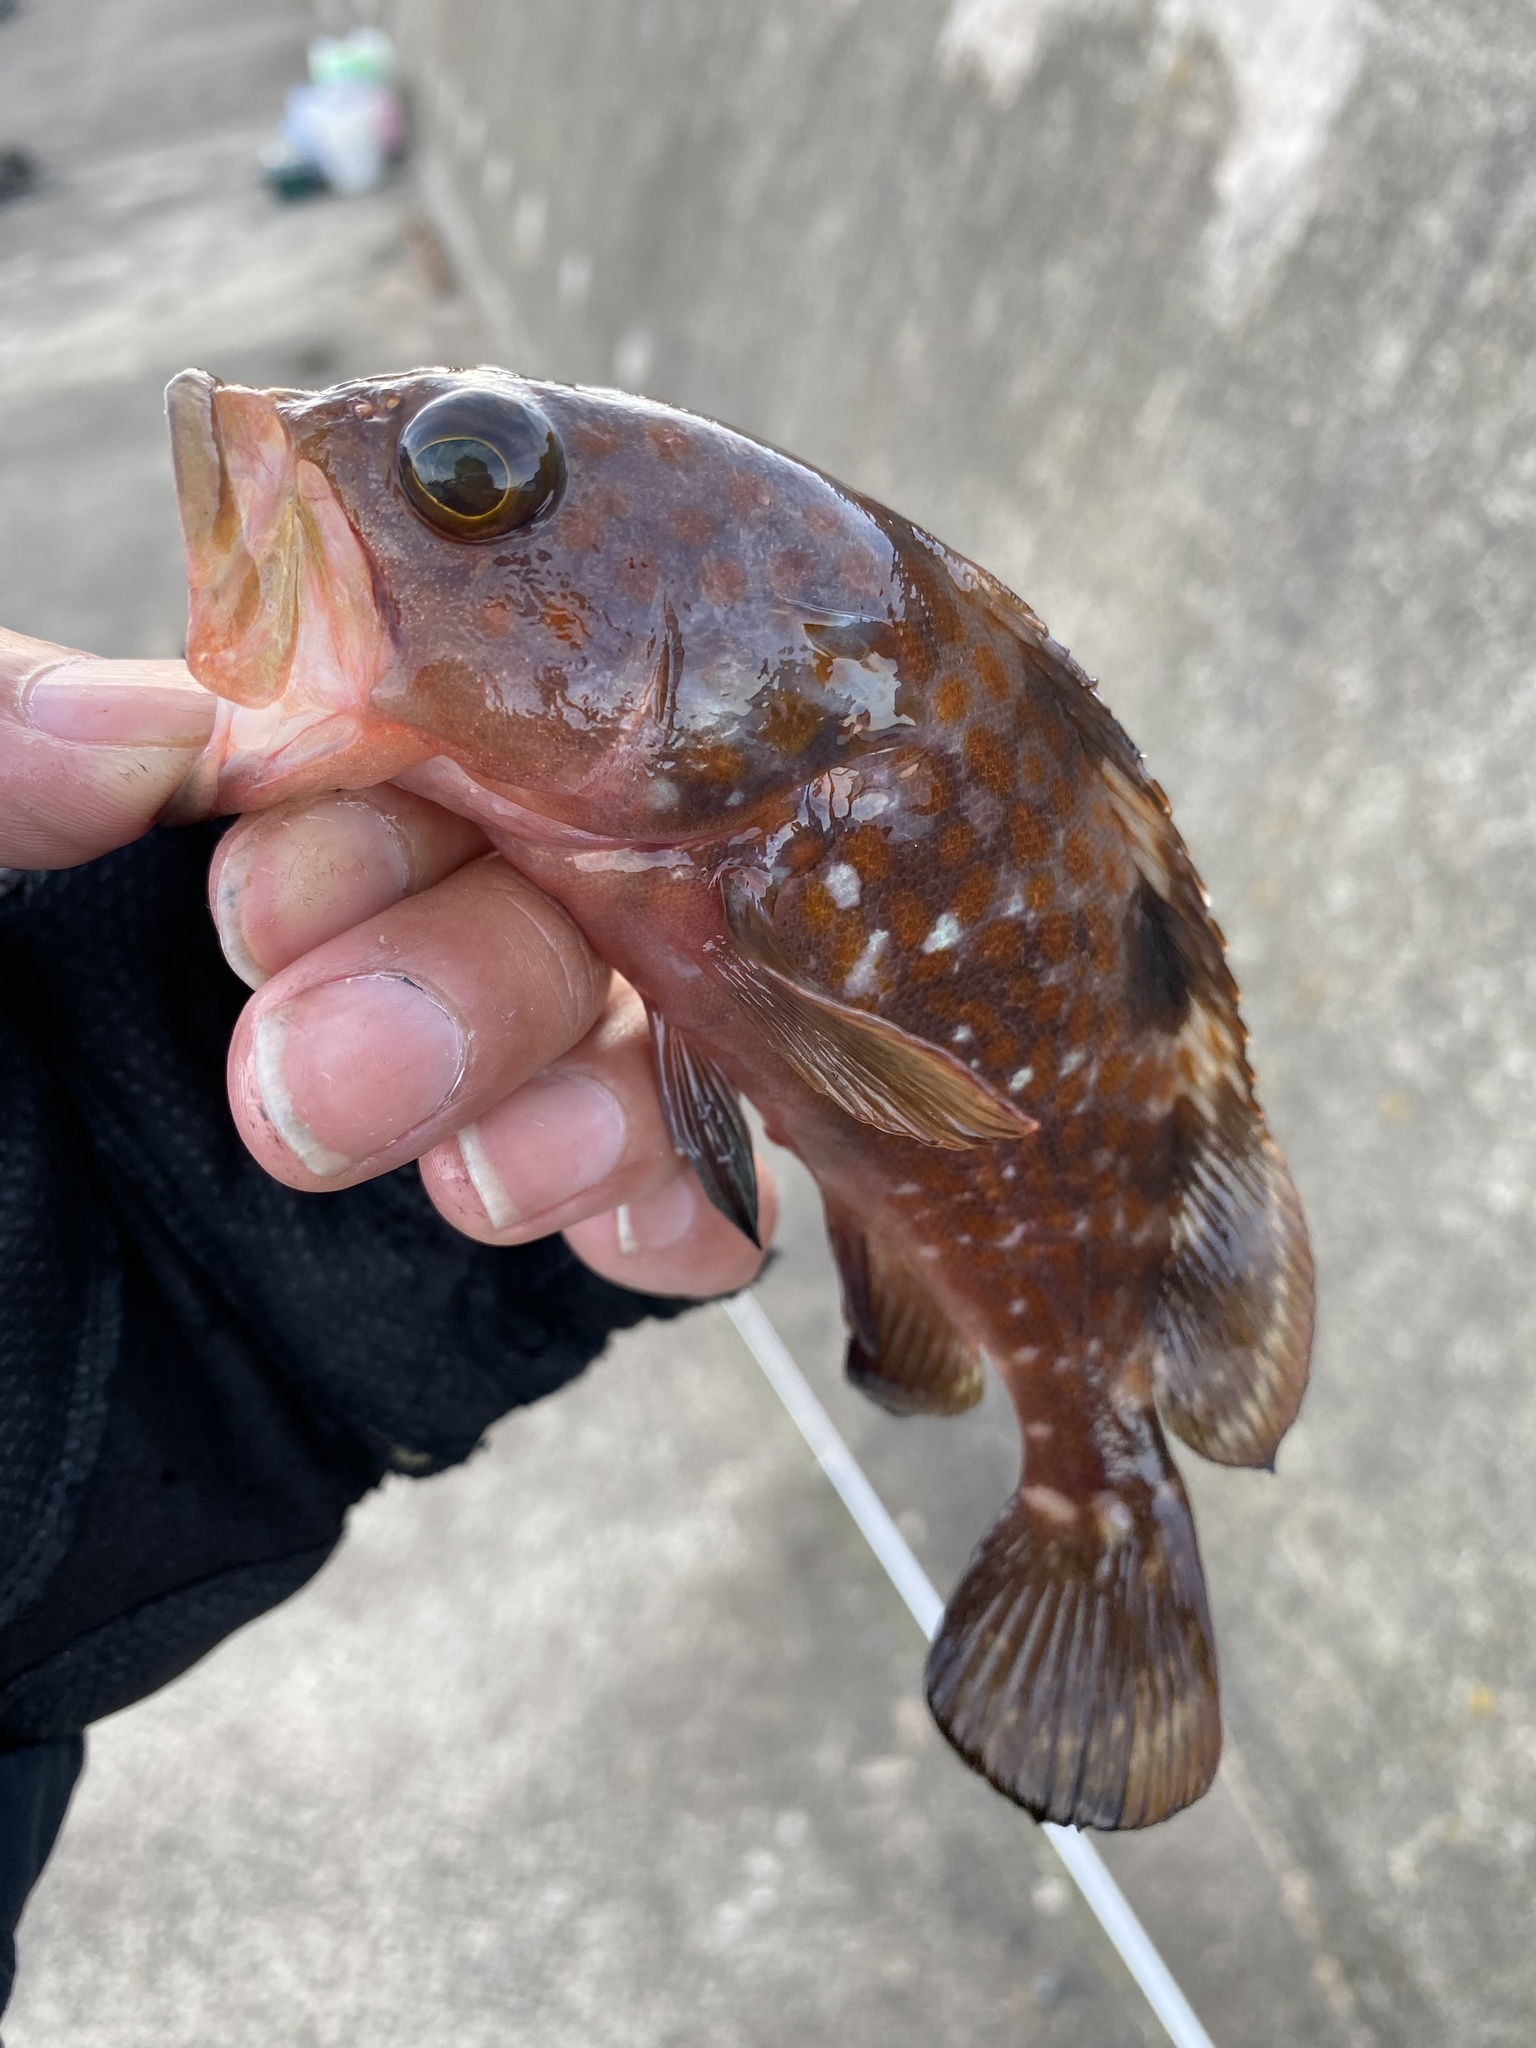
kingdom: Animalia
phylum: Chordata
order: Perciformes
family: Serranidae
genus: Epinephelus
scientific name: Epinephelus akaara
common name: Hong kong grouper
